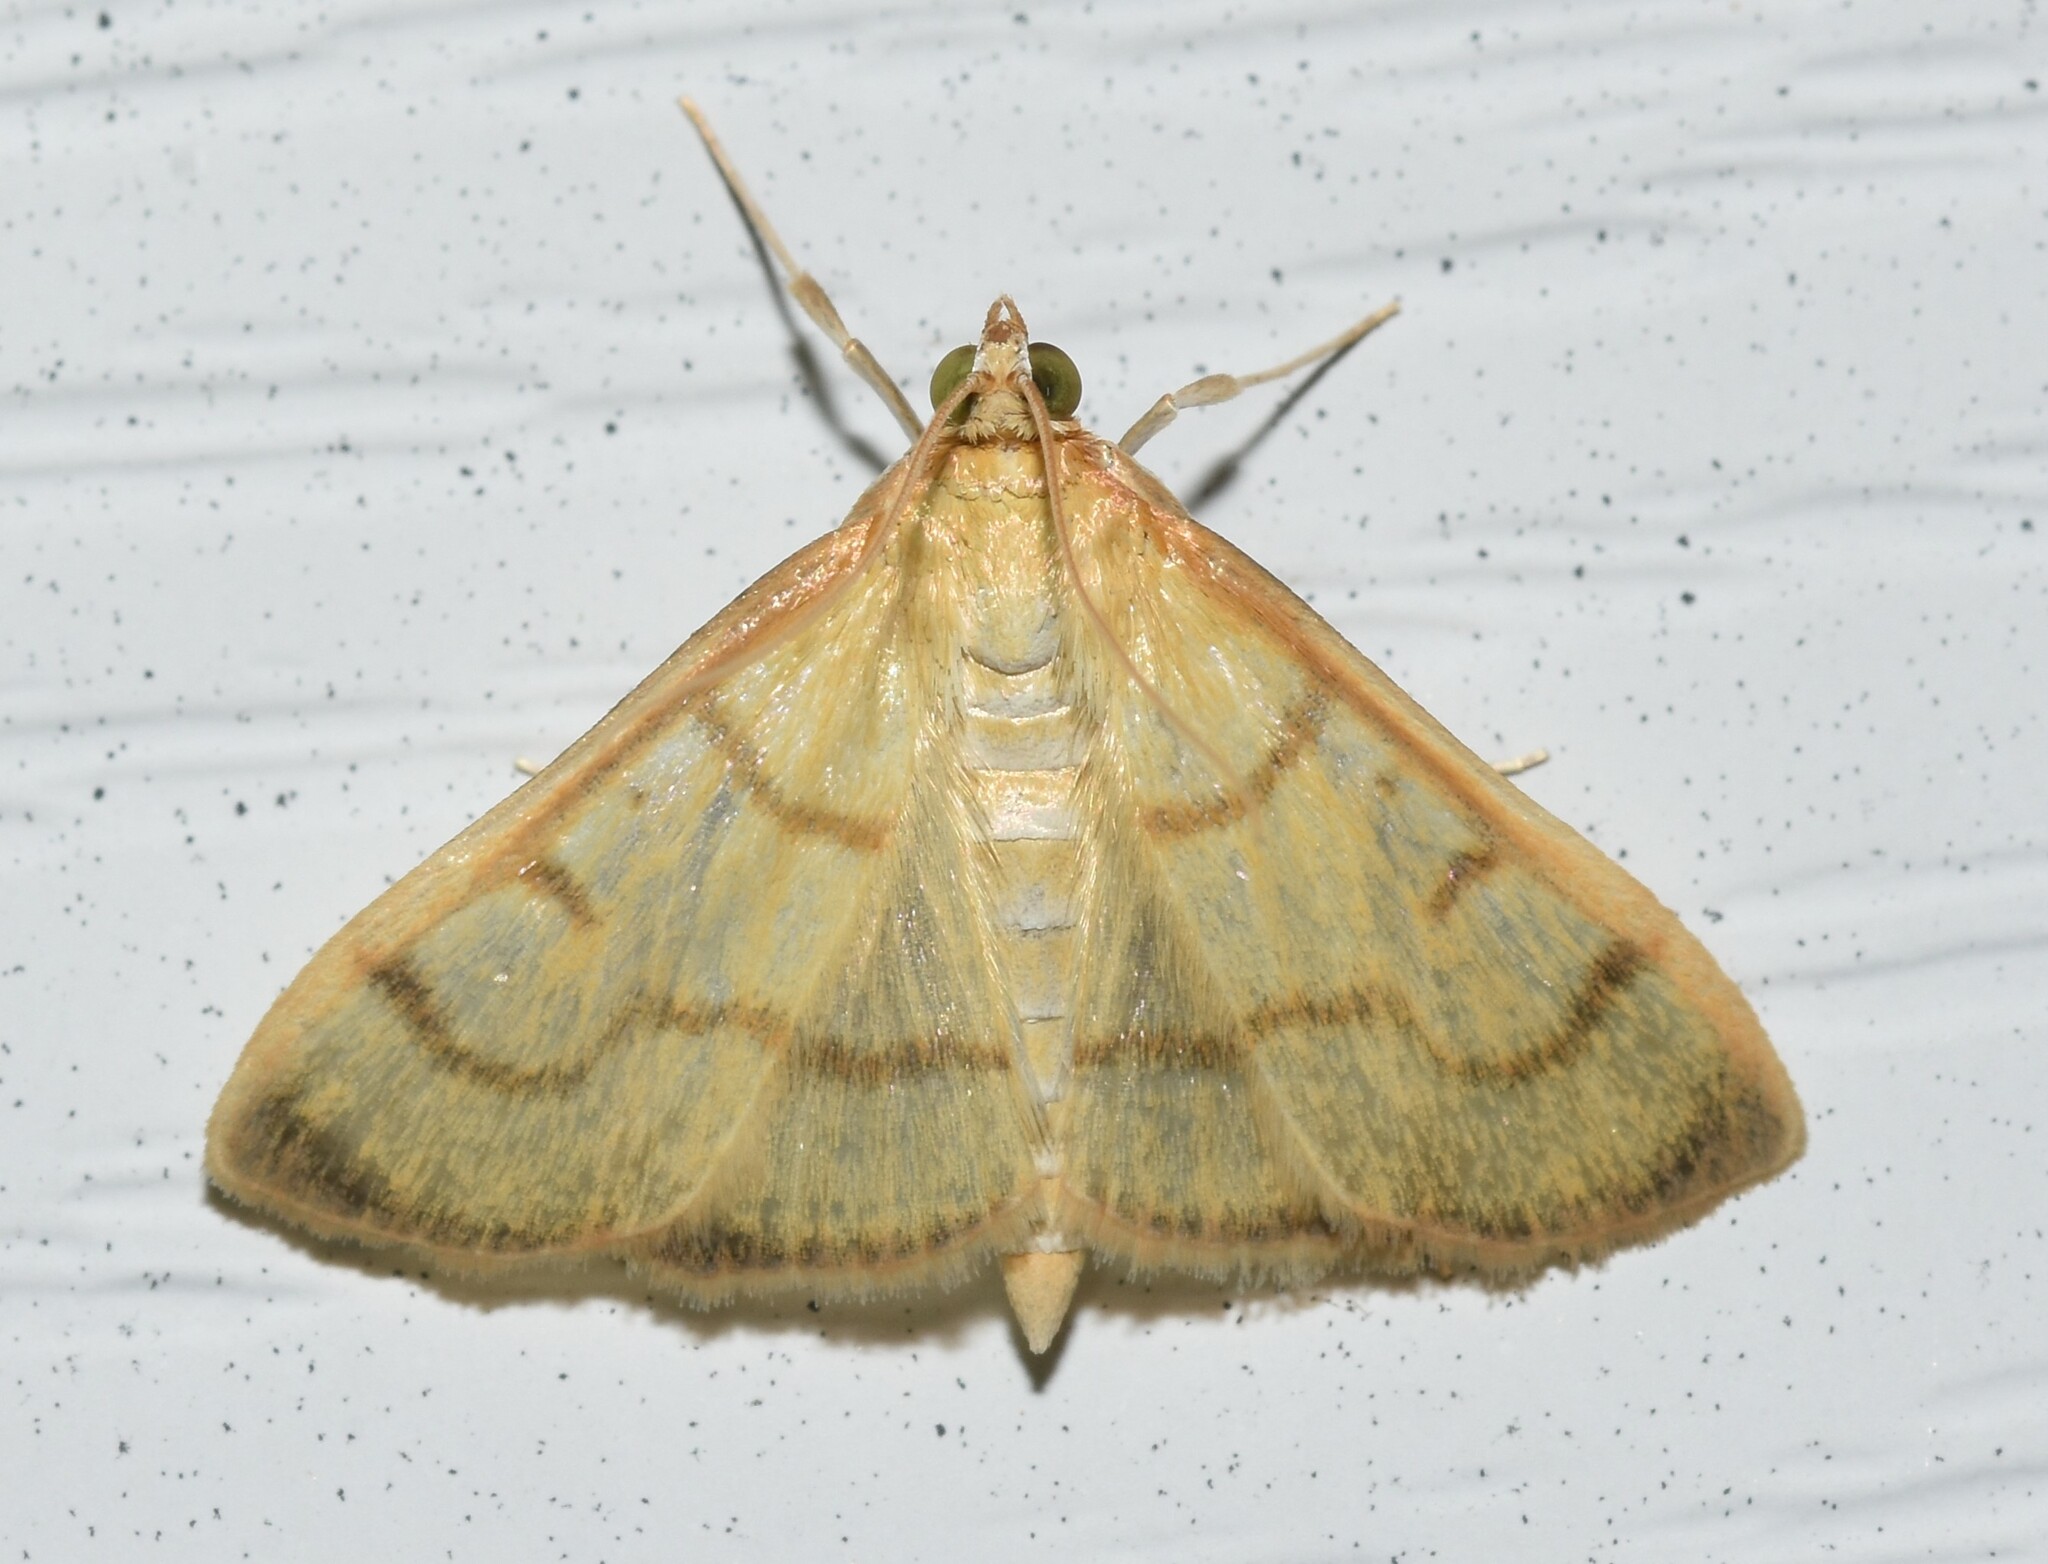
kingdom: Animalia
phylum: Arthropoda
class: Insecta
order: Lepidoptera
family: Crambidae
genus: Neohelvibotys
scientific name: Neohelvibotys neohelvialis
